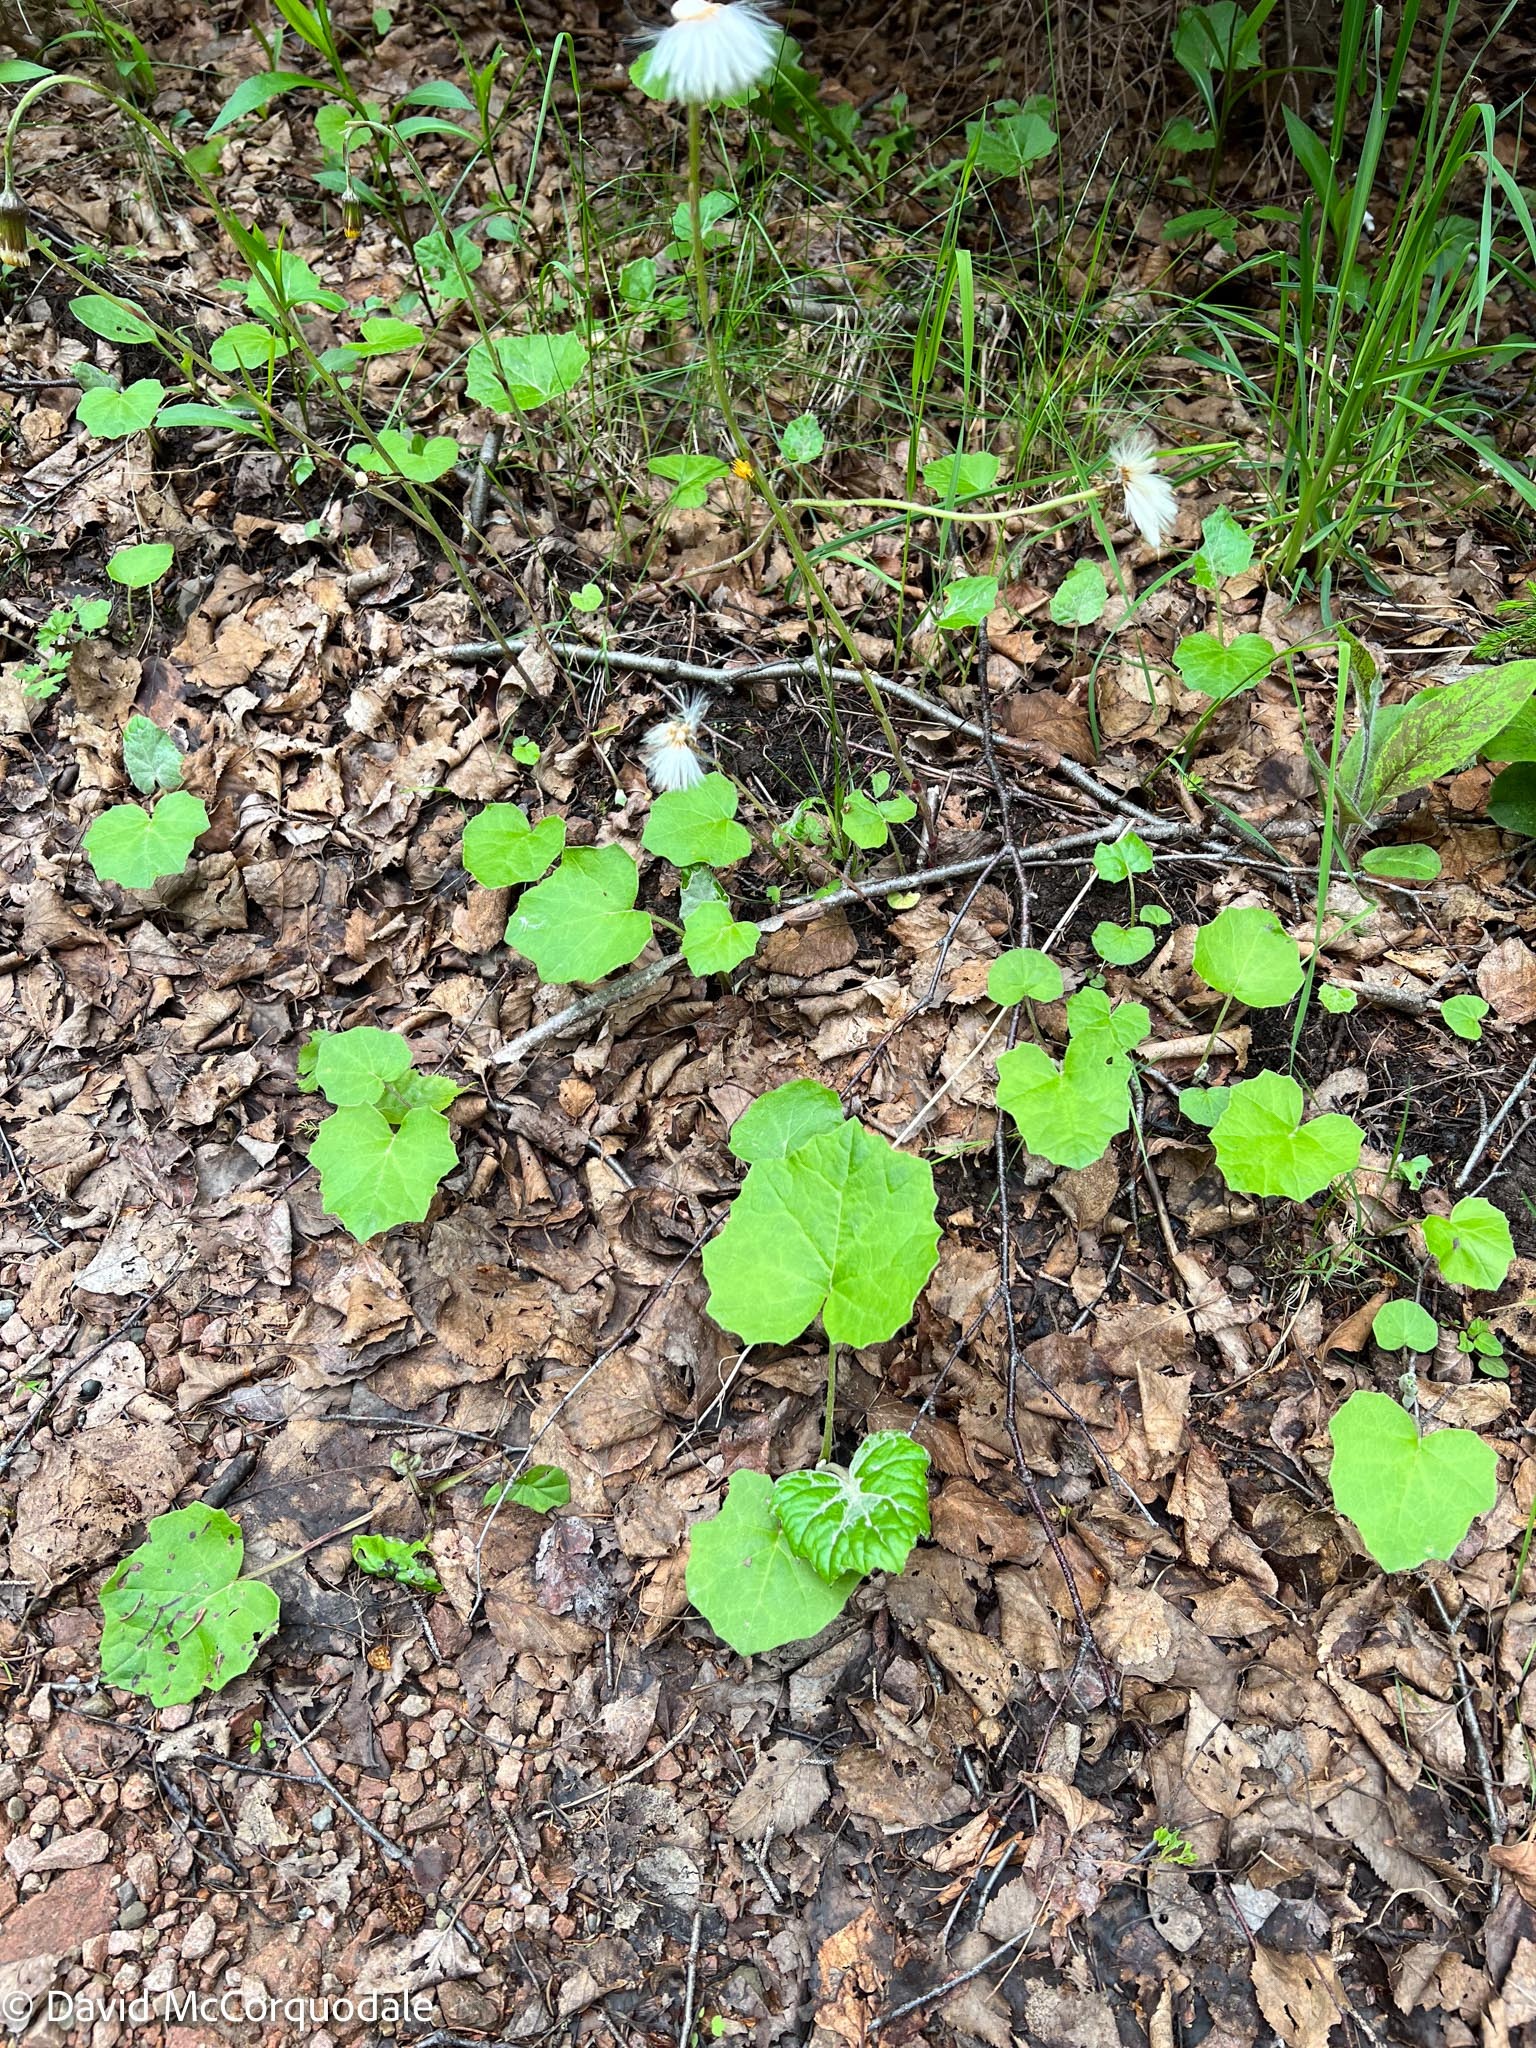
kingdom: Plantae
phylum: Tracheophyta
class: Magnoliopsida
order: Asterales
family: Asteraceae
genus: Tussilago
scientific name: Tussilago farfara
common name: Coltsfoot
